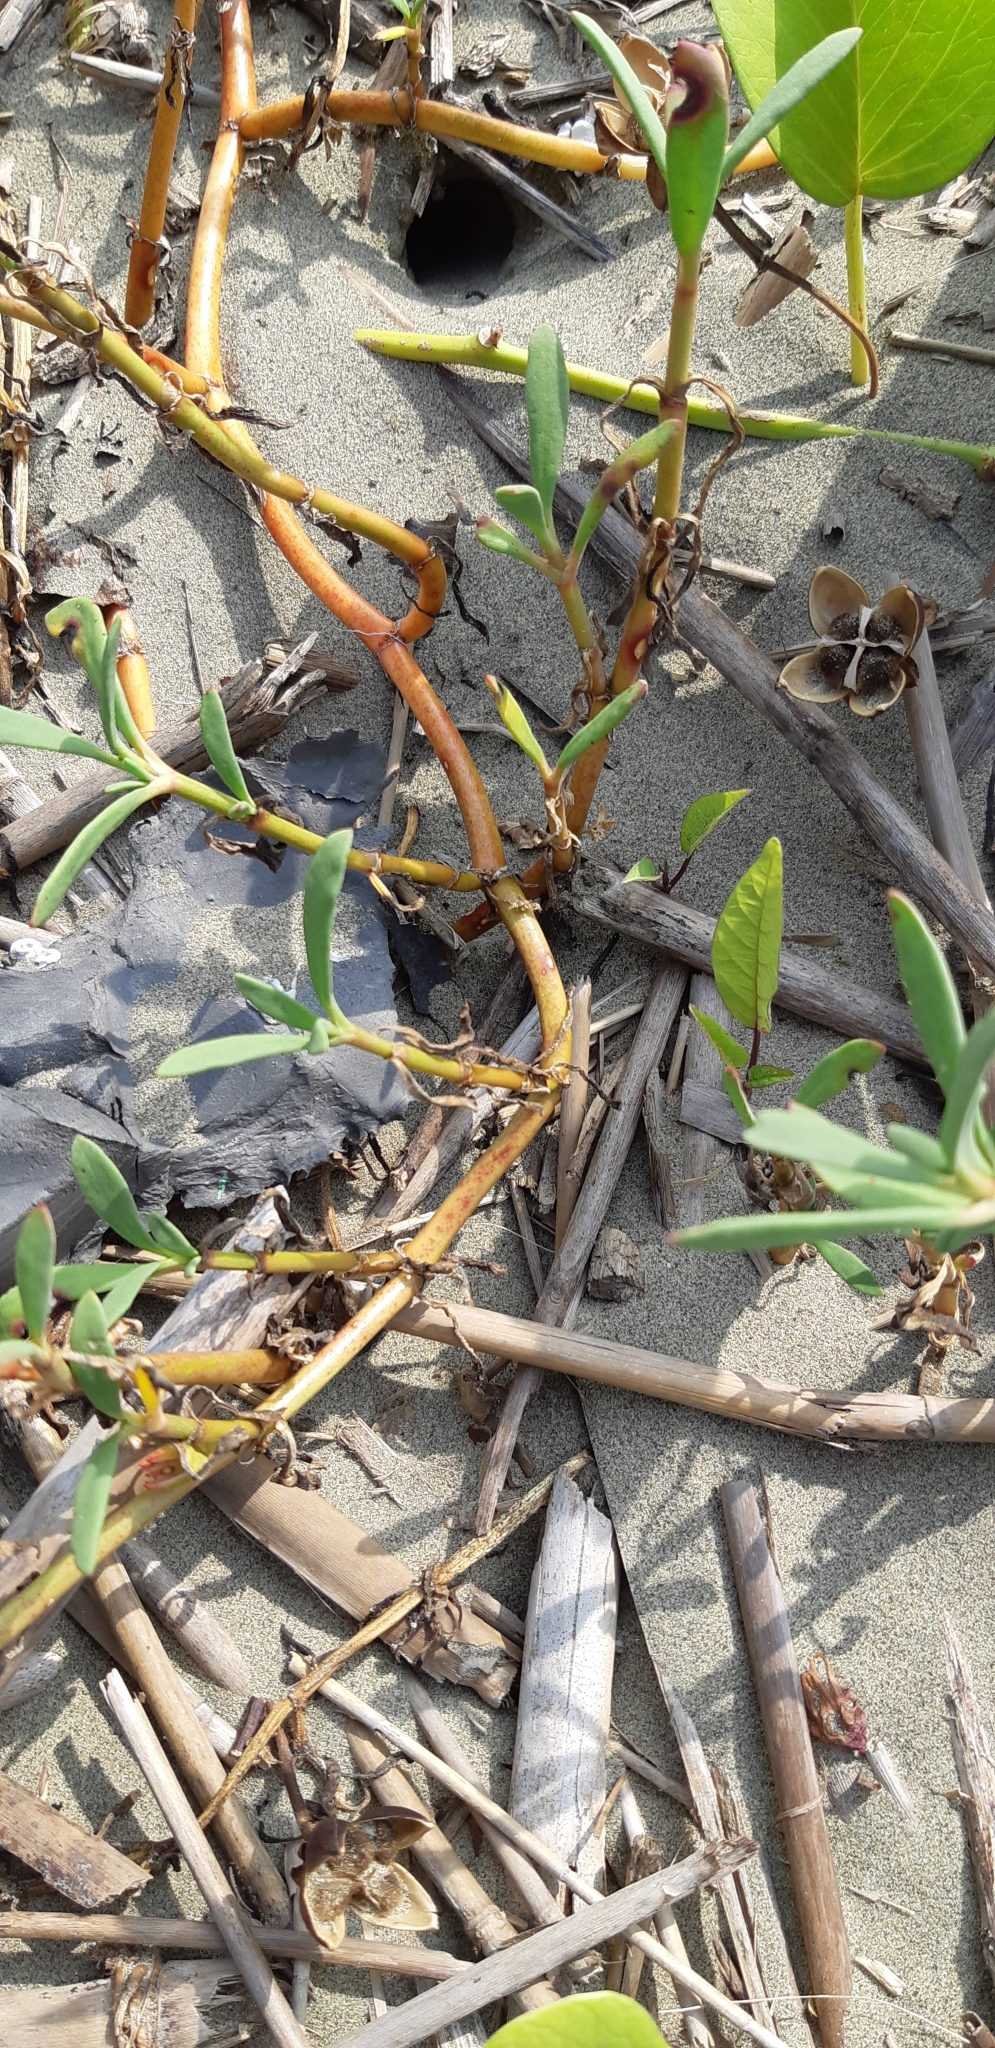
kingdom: Plantae
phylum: Tracheophyta
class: Magnoliopsida
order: Caryophyllales
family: Aizoaceae
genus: Sesuvium
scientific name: Sesuvium portulacastrum
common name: Sea-purslane
